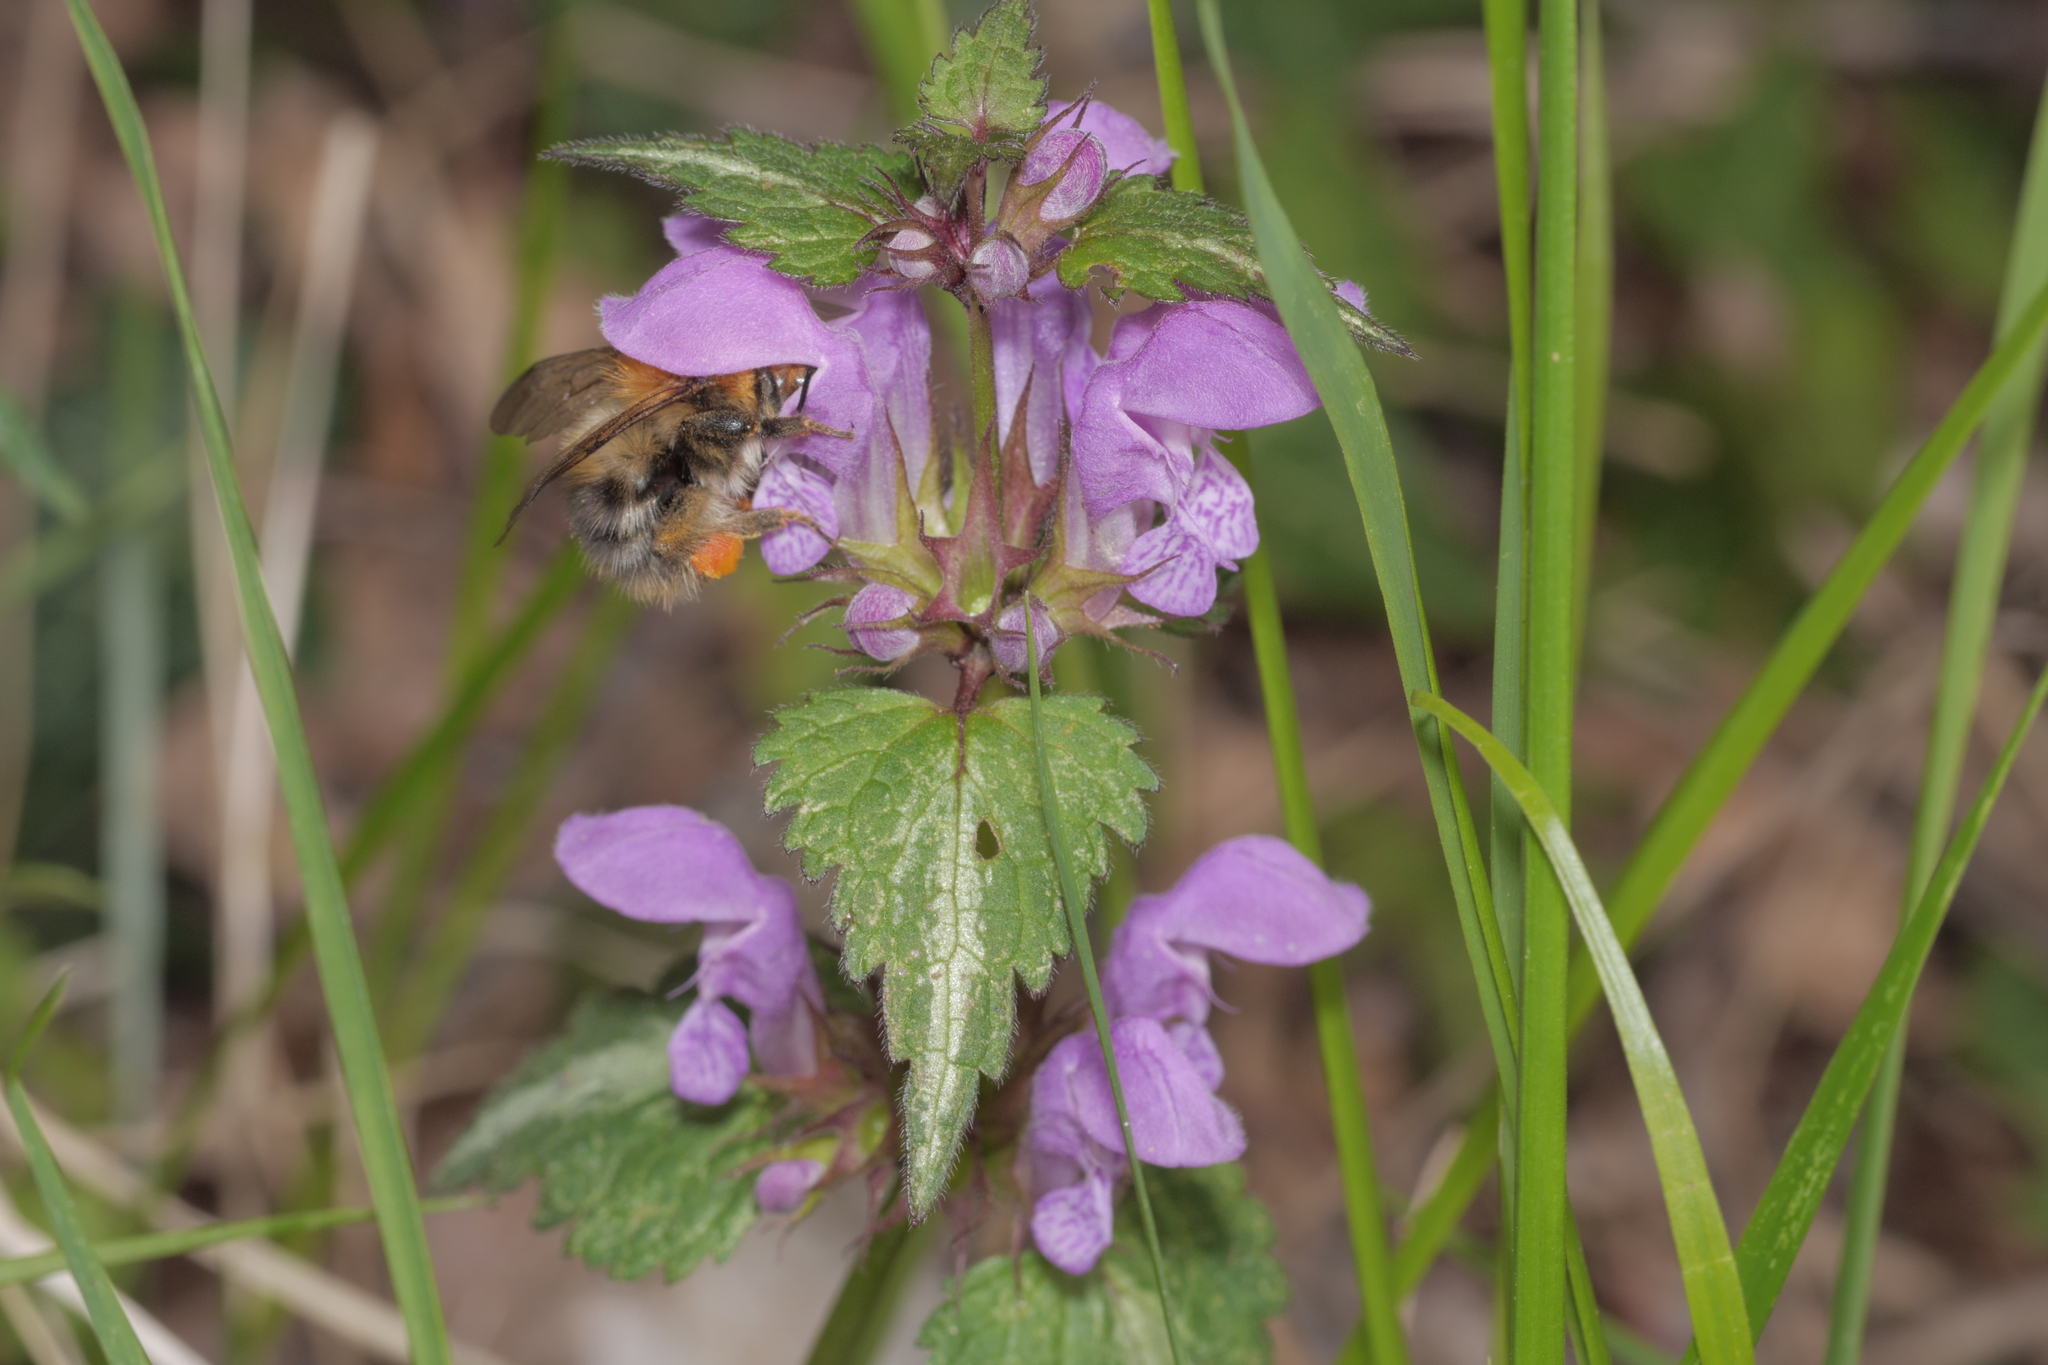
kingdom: Plantae
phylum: Tracheophyta
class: Magnoliopsida
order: Lamiales
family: Lamiaceae
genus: Lamium
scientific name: Lamium maculatum
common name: Spotted dead-nettle
